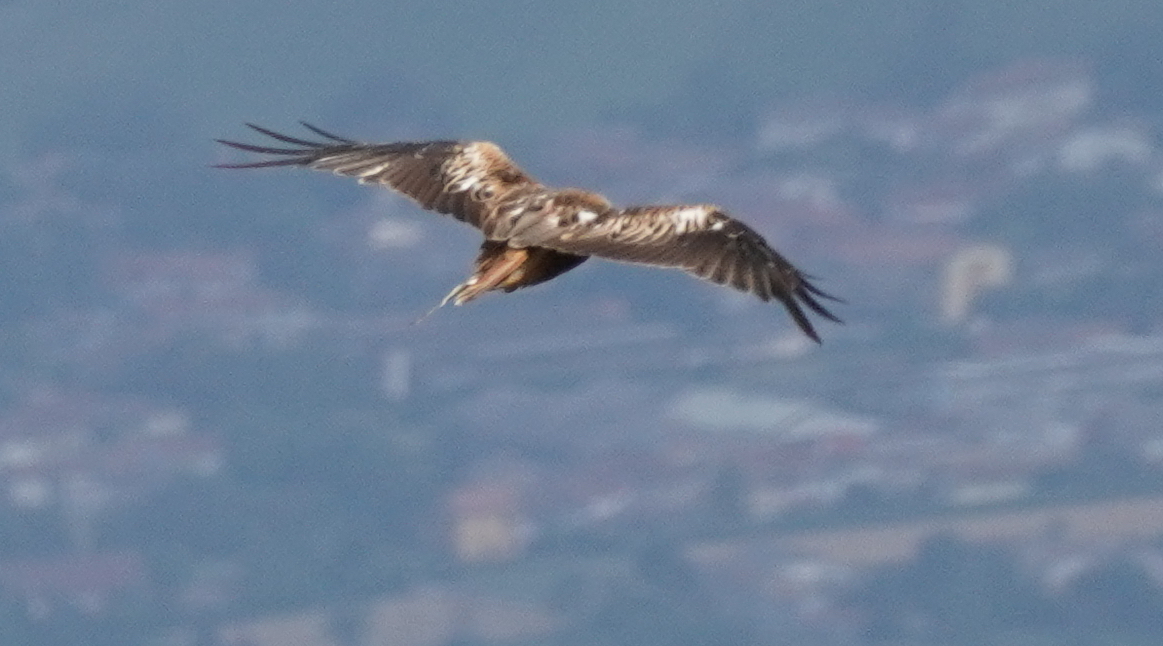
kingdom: Animalia
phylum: Chordata
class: Aves
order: Accipitriformes
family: Accipitridae
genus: Milvus
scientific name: Milvus milvus
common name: Red kite
